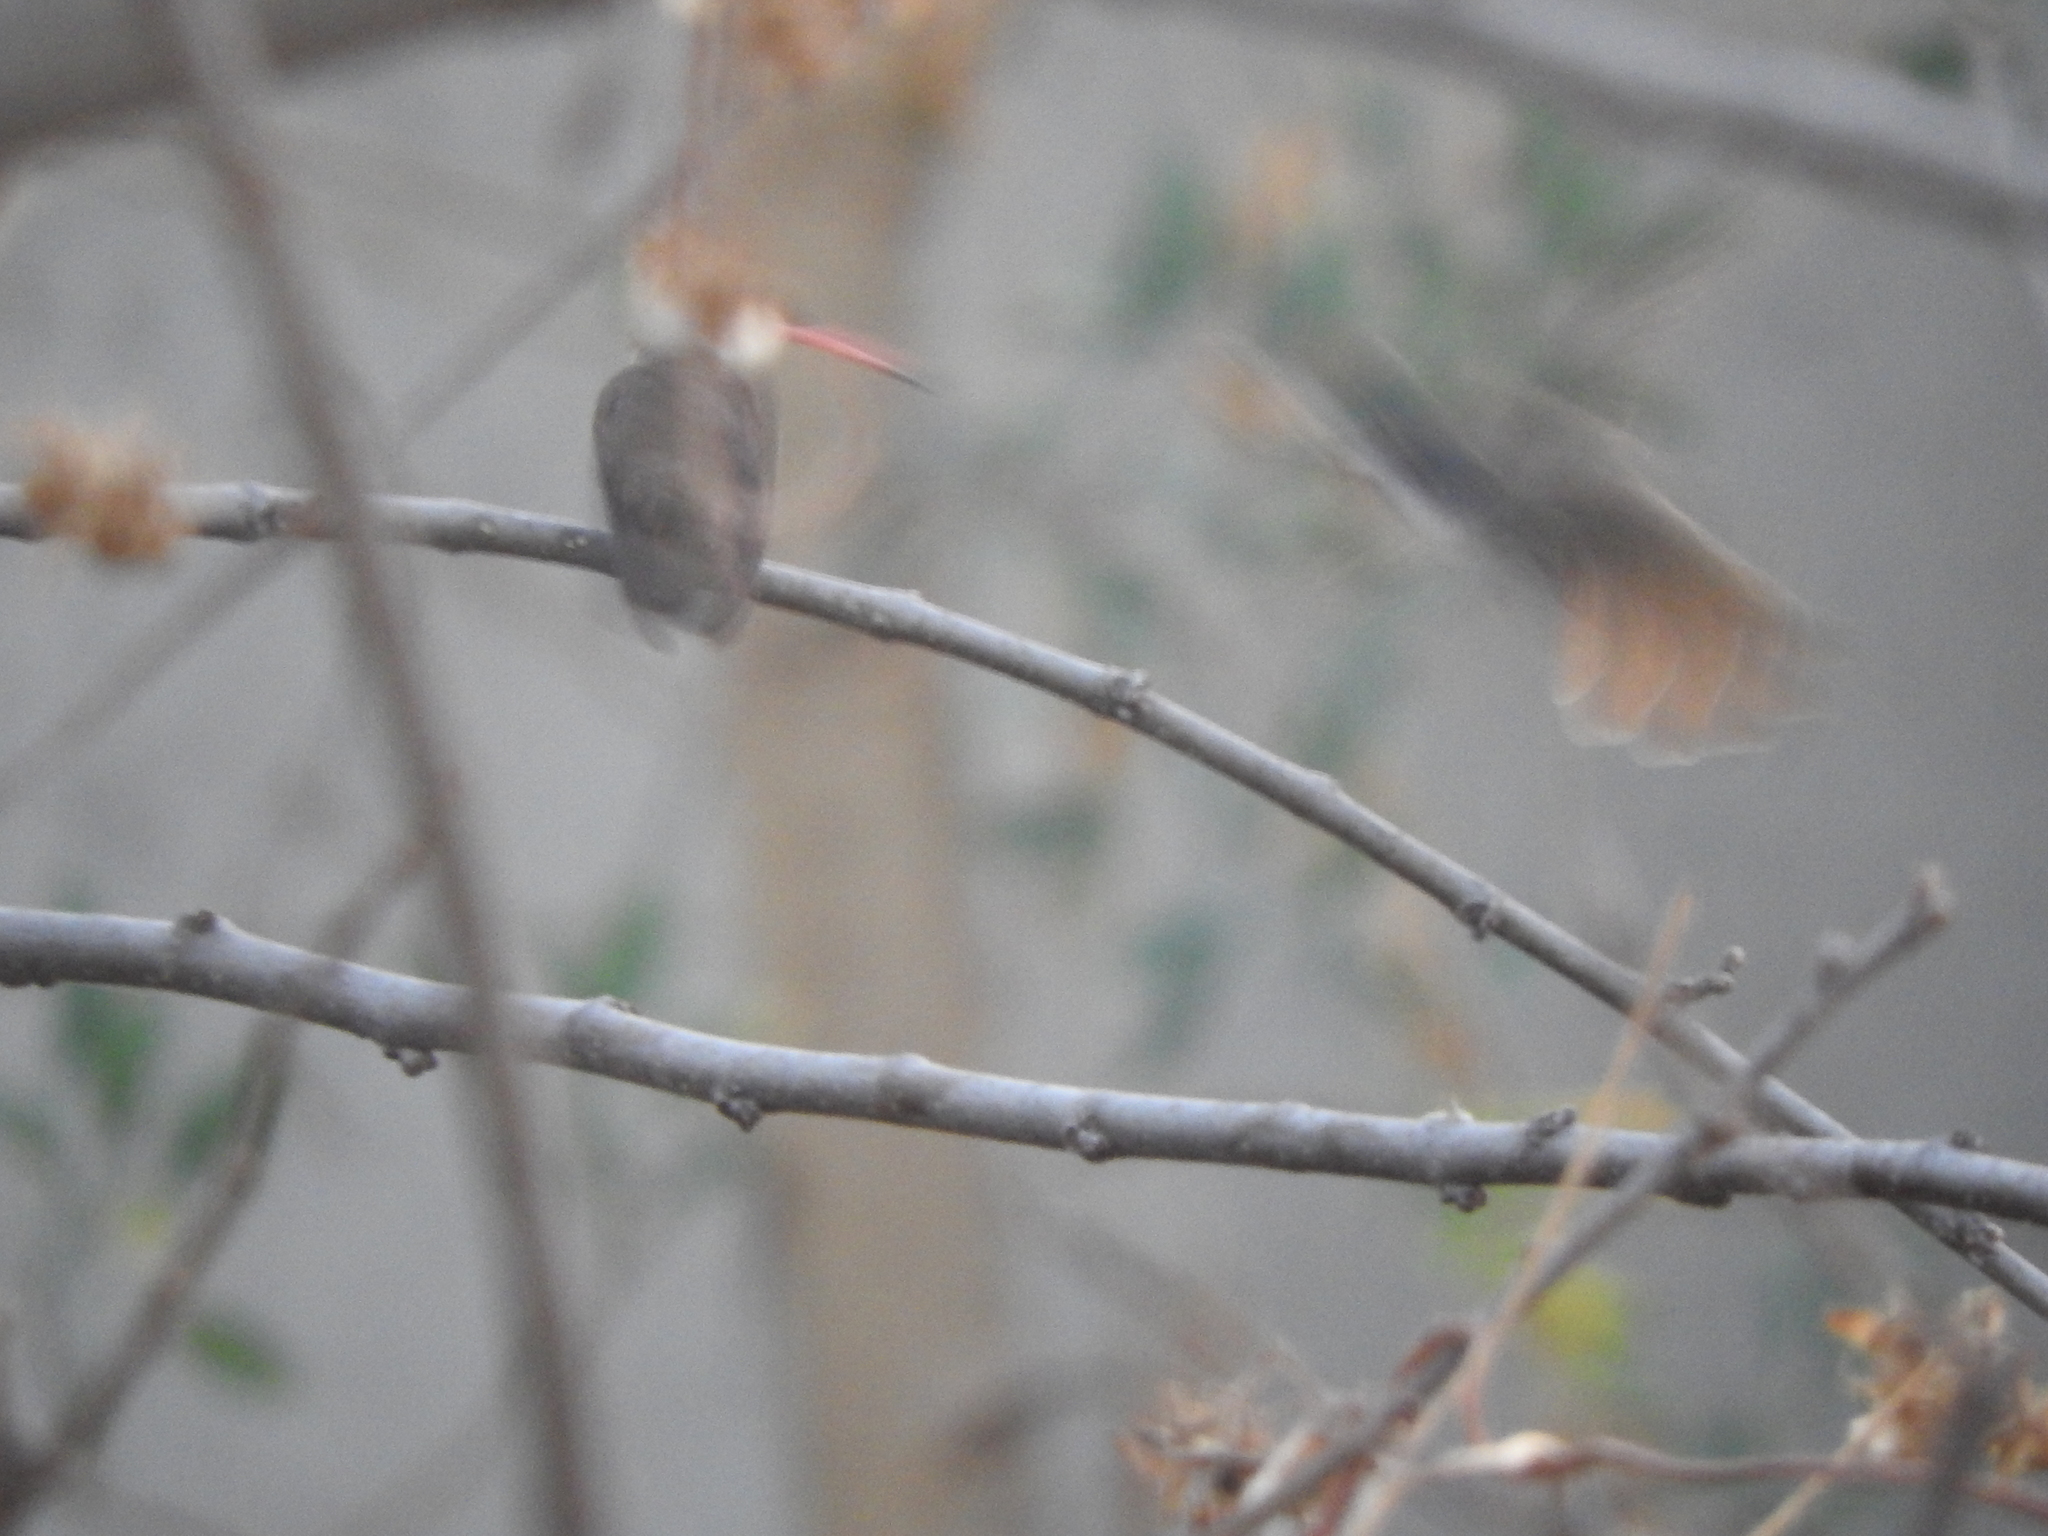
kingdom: Animalia
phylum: Chordata
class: Aves
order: Apodiformes
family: Trochilidae
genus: Leucolia
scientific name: Leucolia violiceps
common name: Violet-crowned hummingbird
